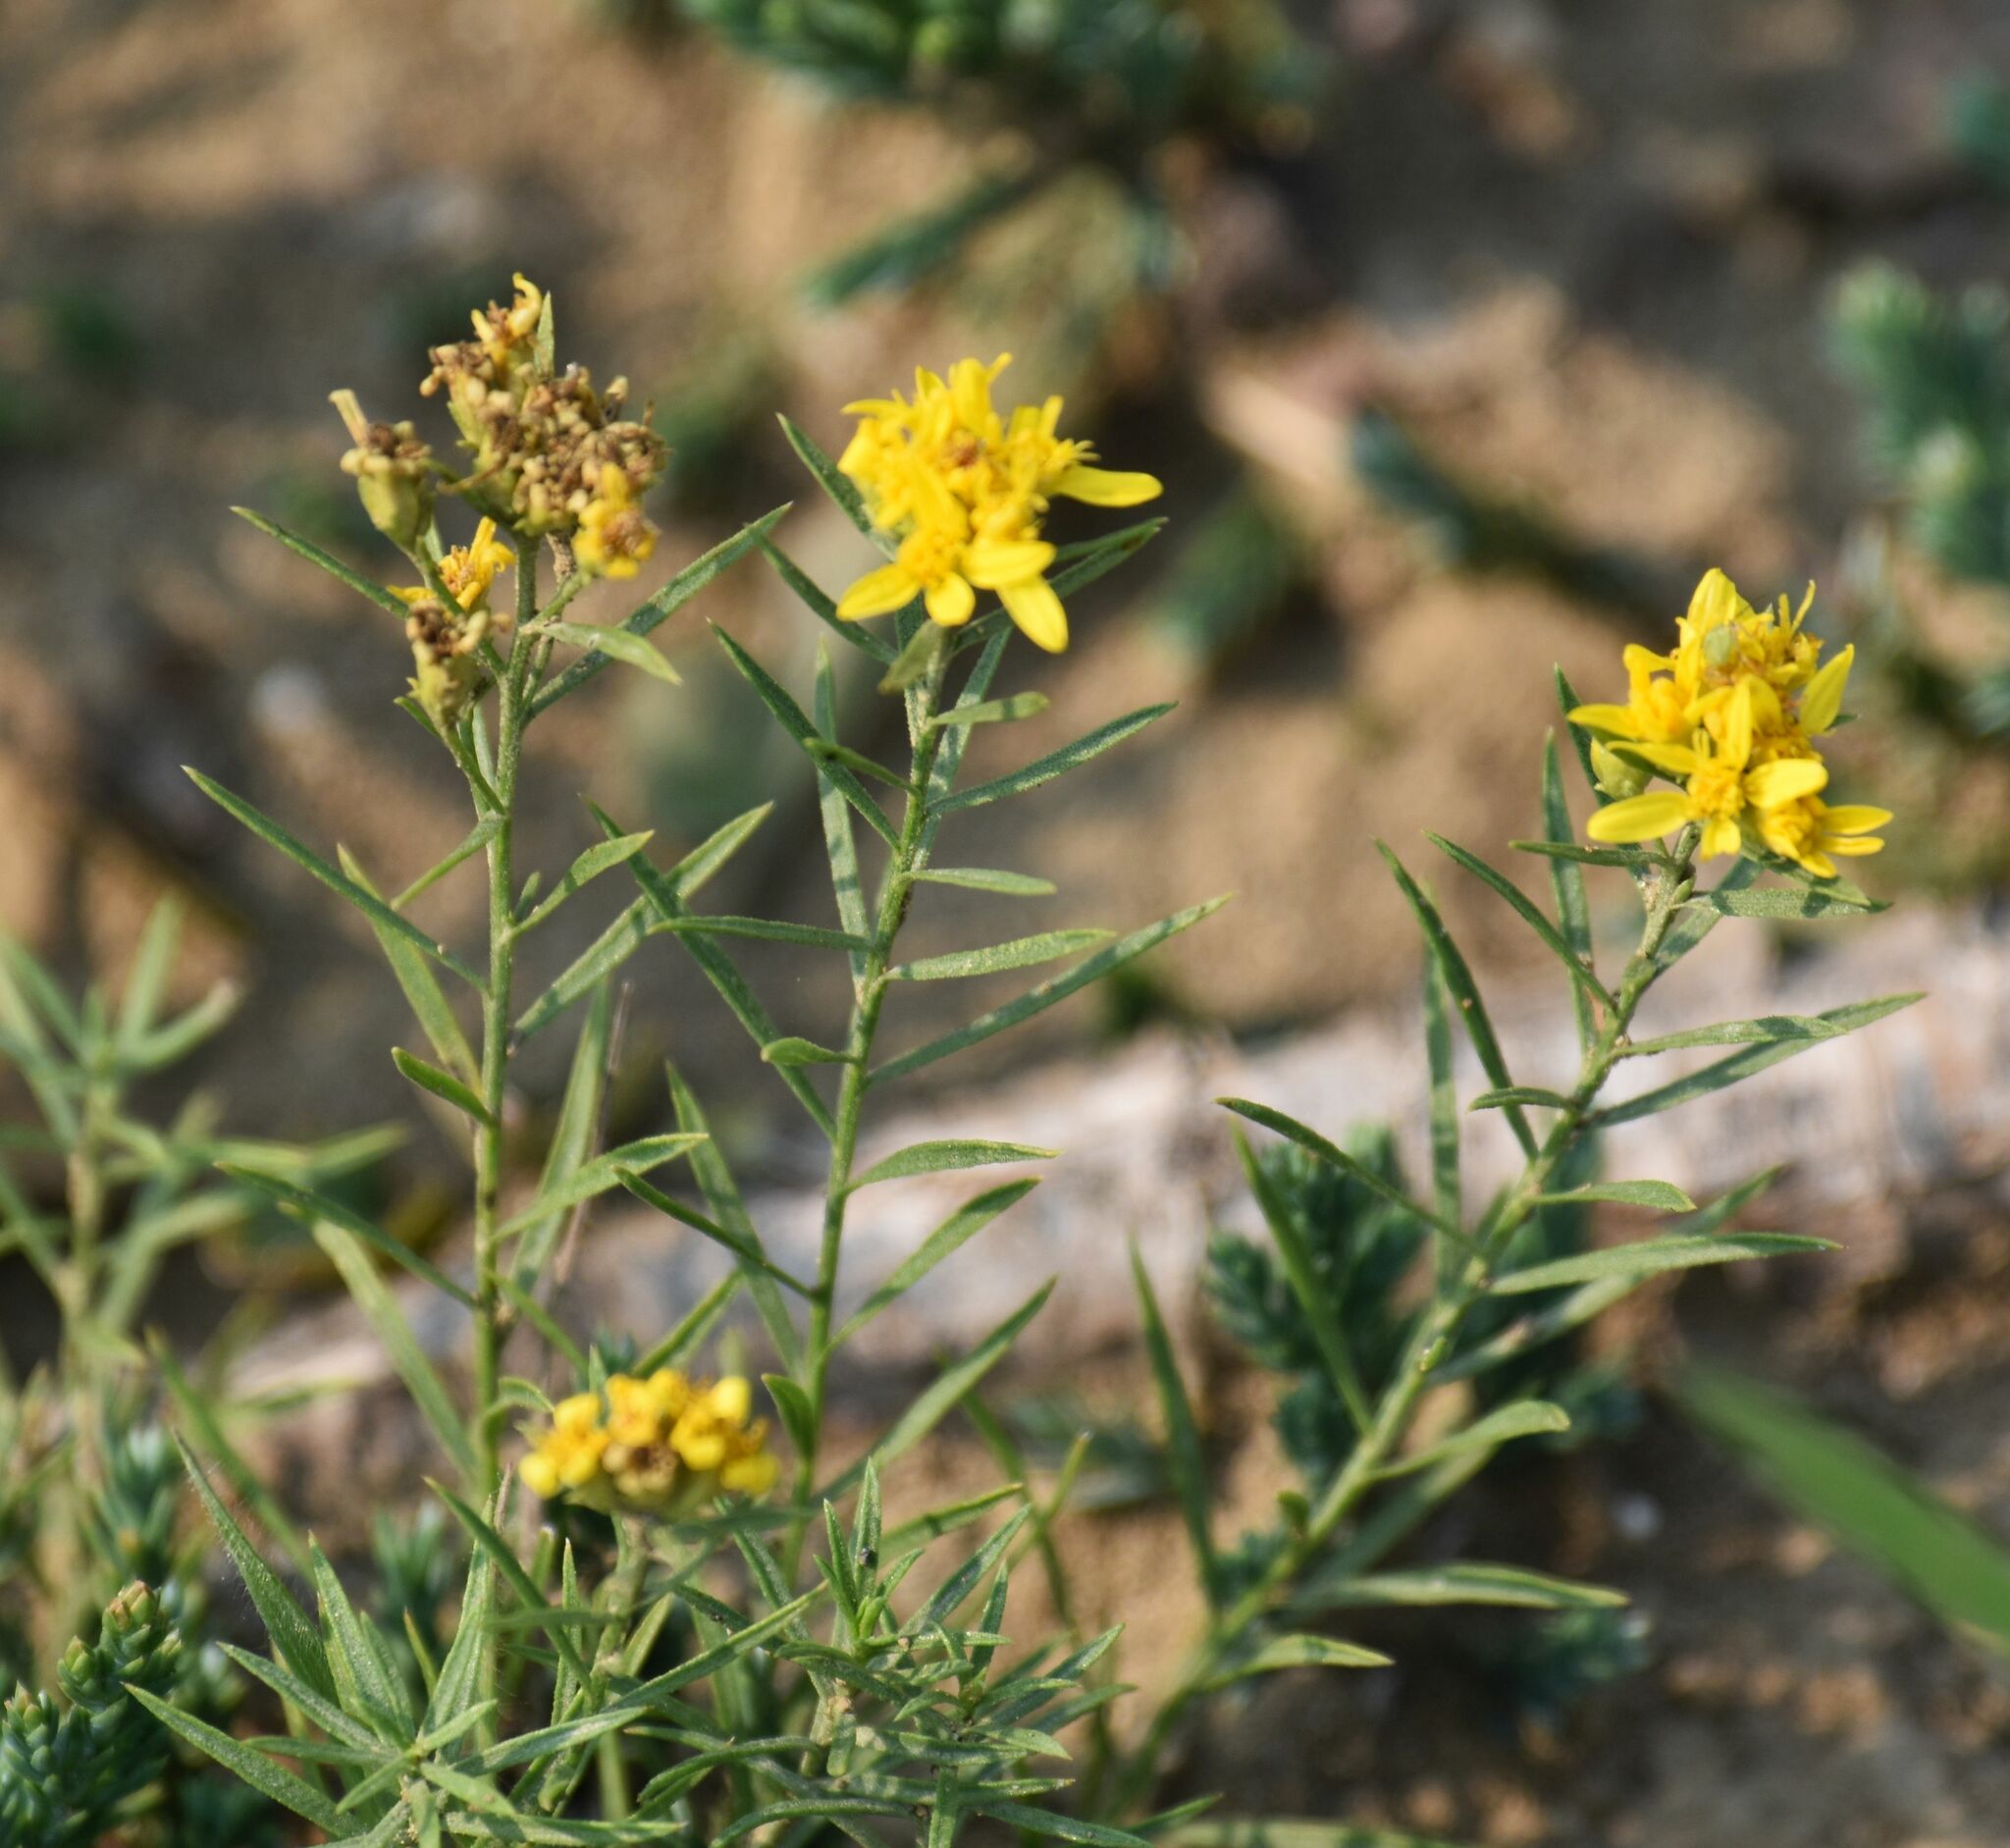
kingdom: Plantae
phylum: Tracheophyta
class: Magnoliopsida
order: Asterales
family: Asteraceae
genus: Gutierrezia
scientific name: Gutierrezia sarothrae
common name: Broom snakeweed
